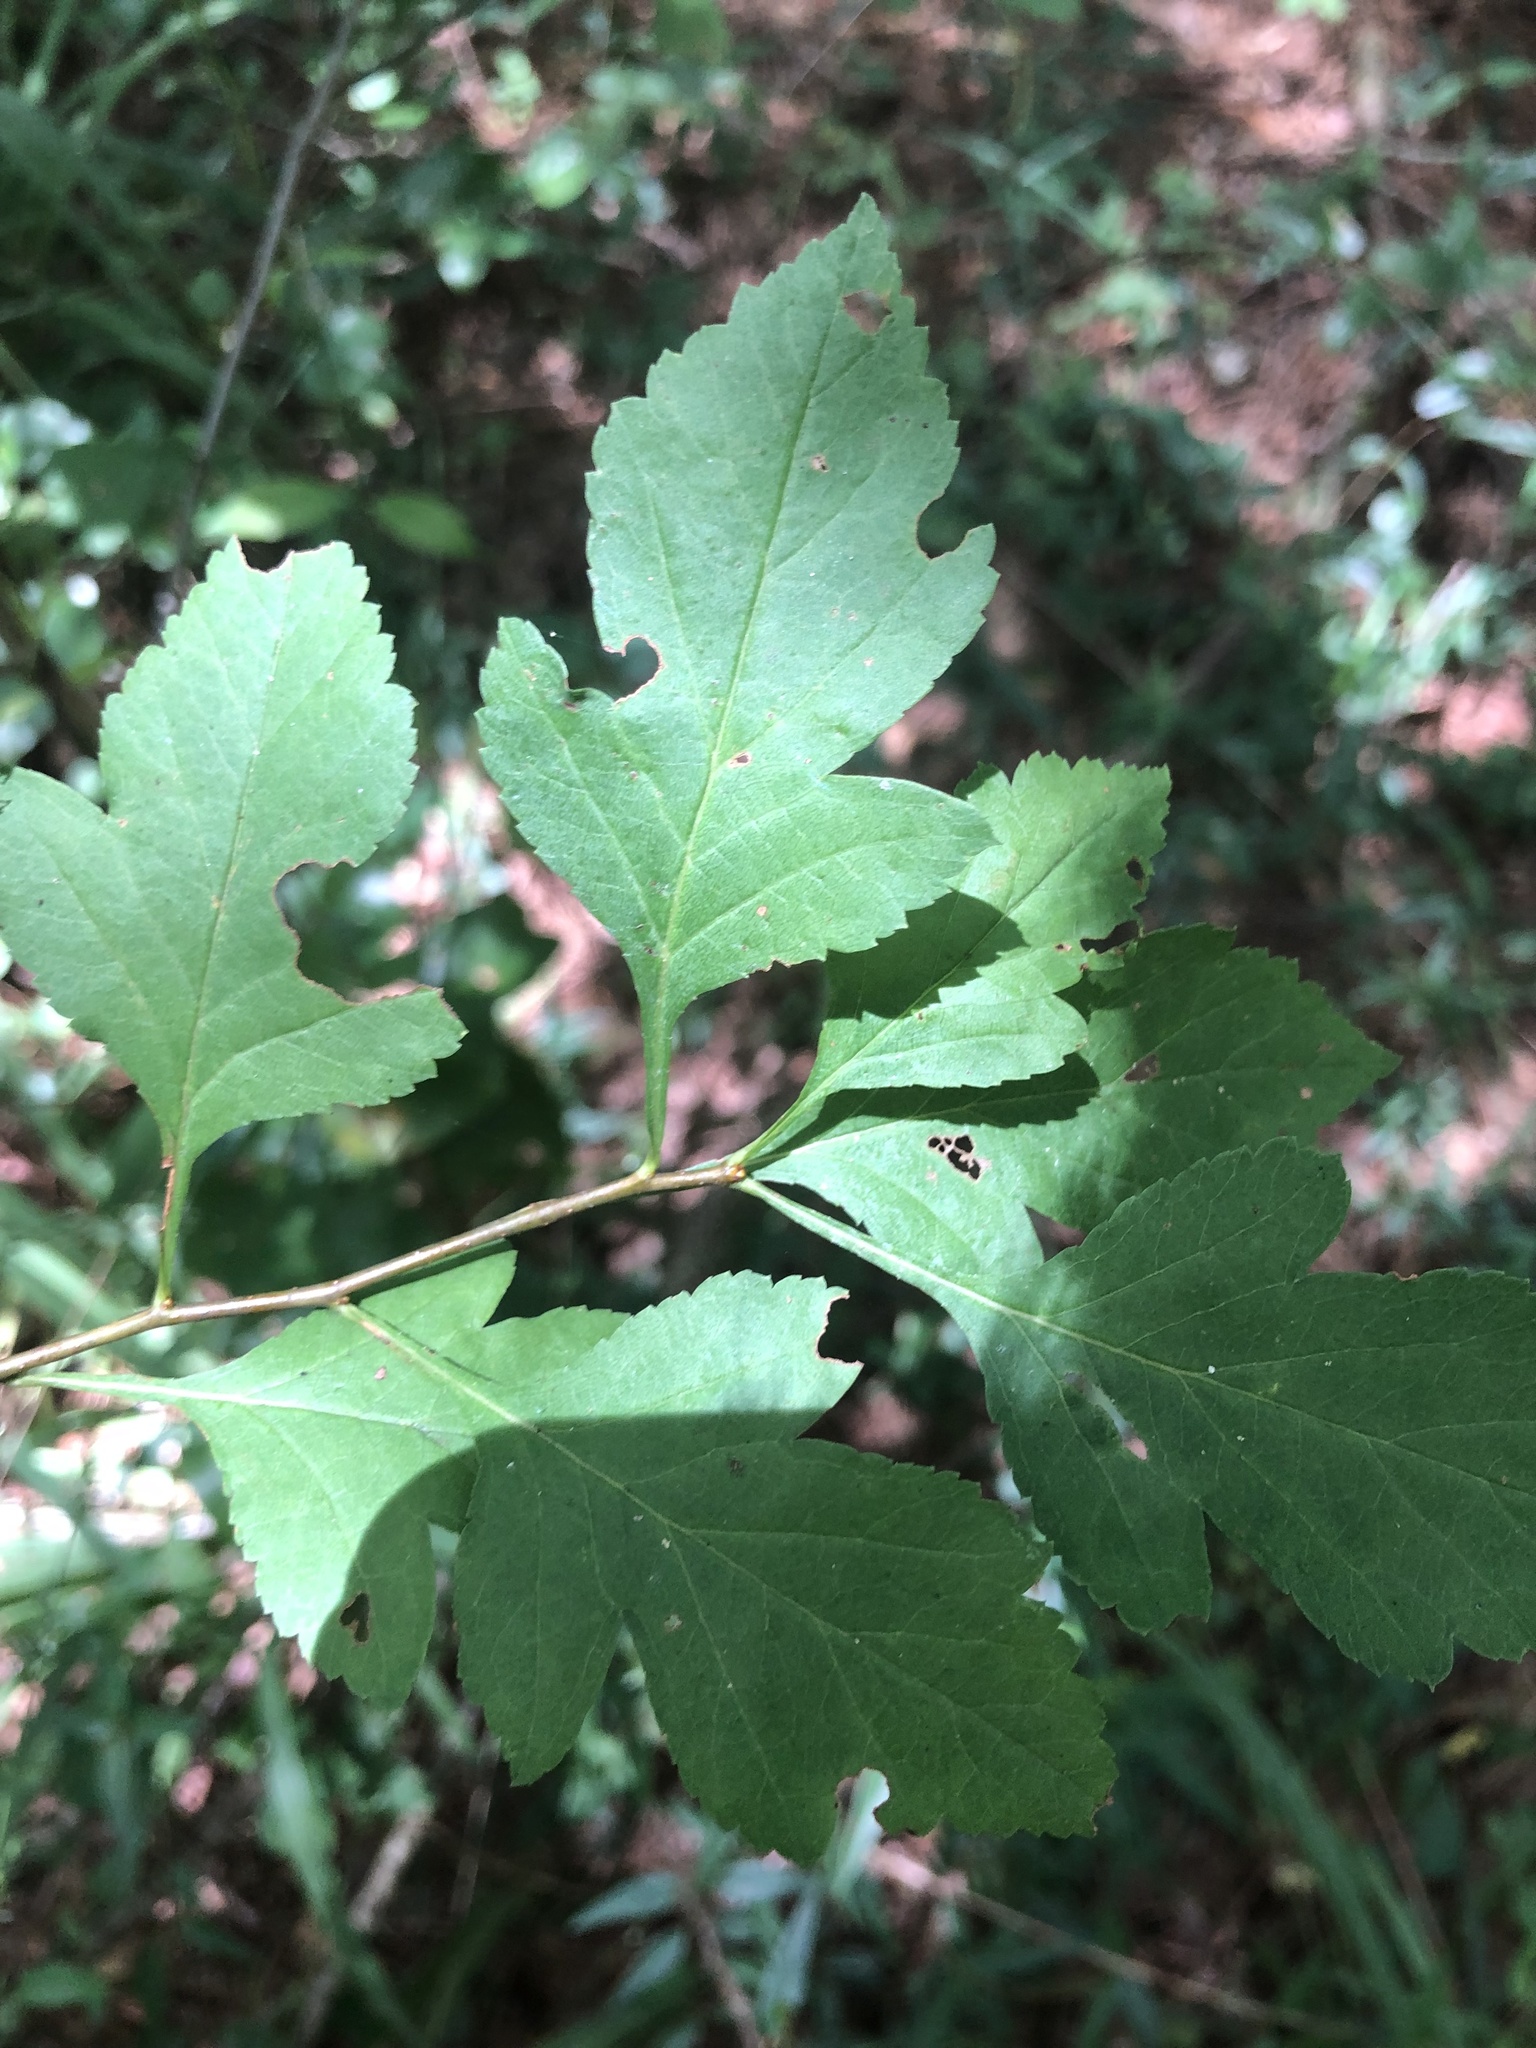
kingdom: Plantae
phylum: Tracheophyta
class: Magnoliopsida
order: Rosales
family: Rosaceae
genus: Crataegus
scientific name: Crataegus pulcherrima
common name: Beautiful hawthorn
